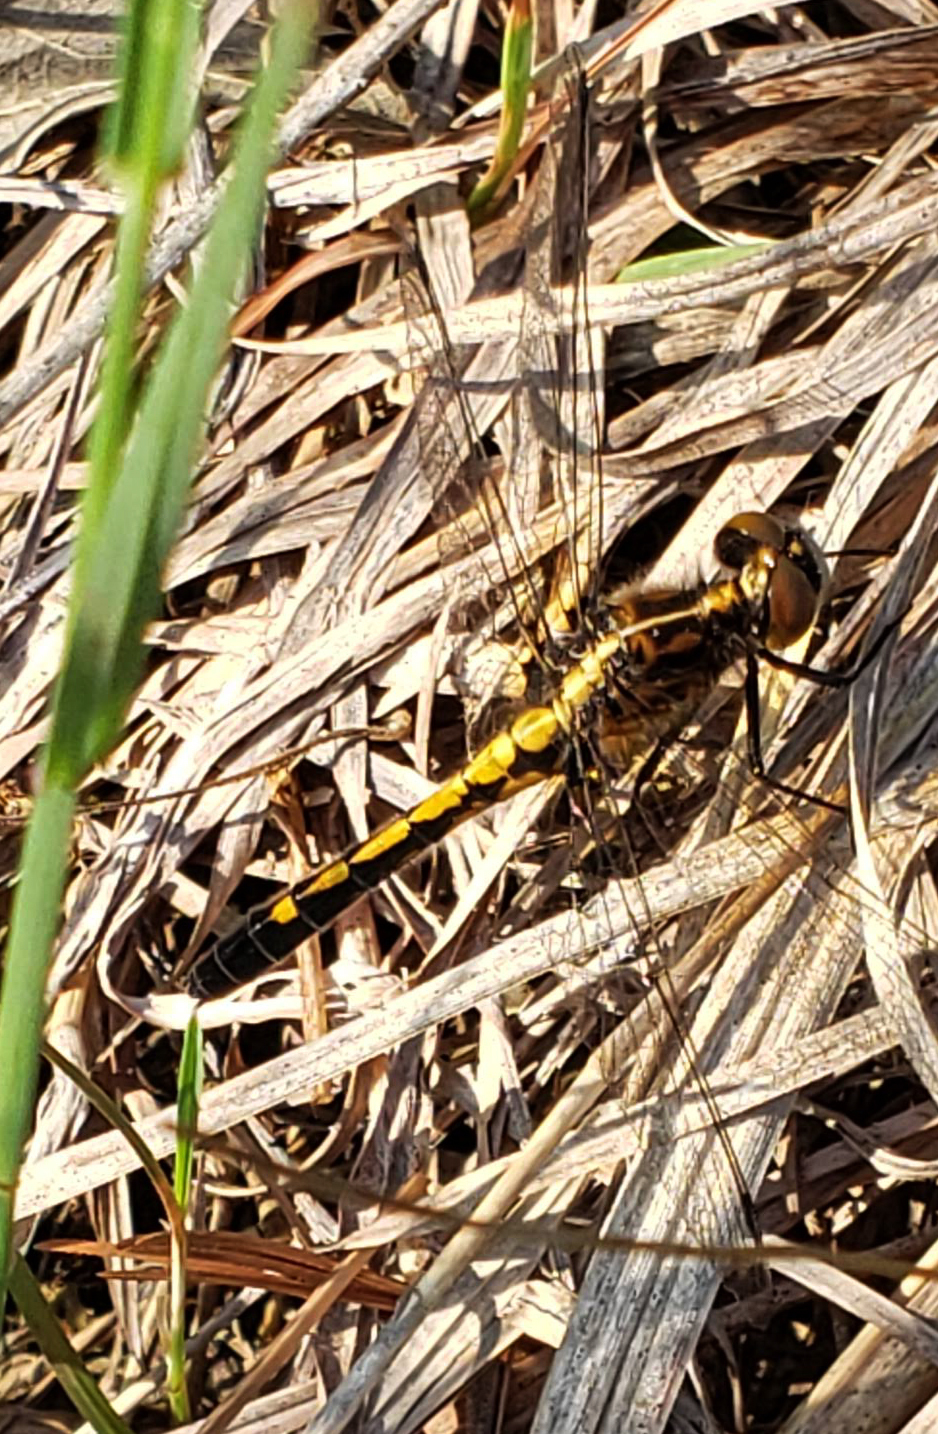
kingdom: Animalia
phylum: Arthropoda
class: Insecta
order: Odonata
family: Libellulidae
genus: Leucorrhinia
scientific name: Leucorrhinia intacta
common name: Dot-tailed whiteface
